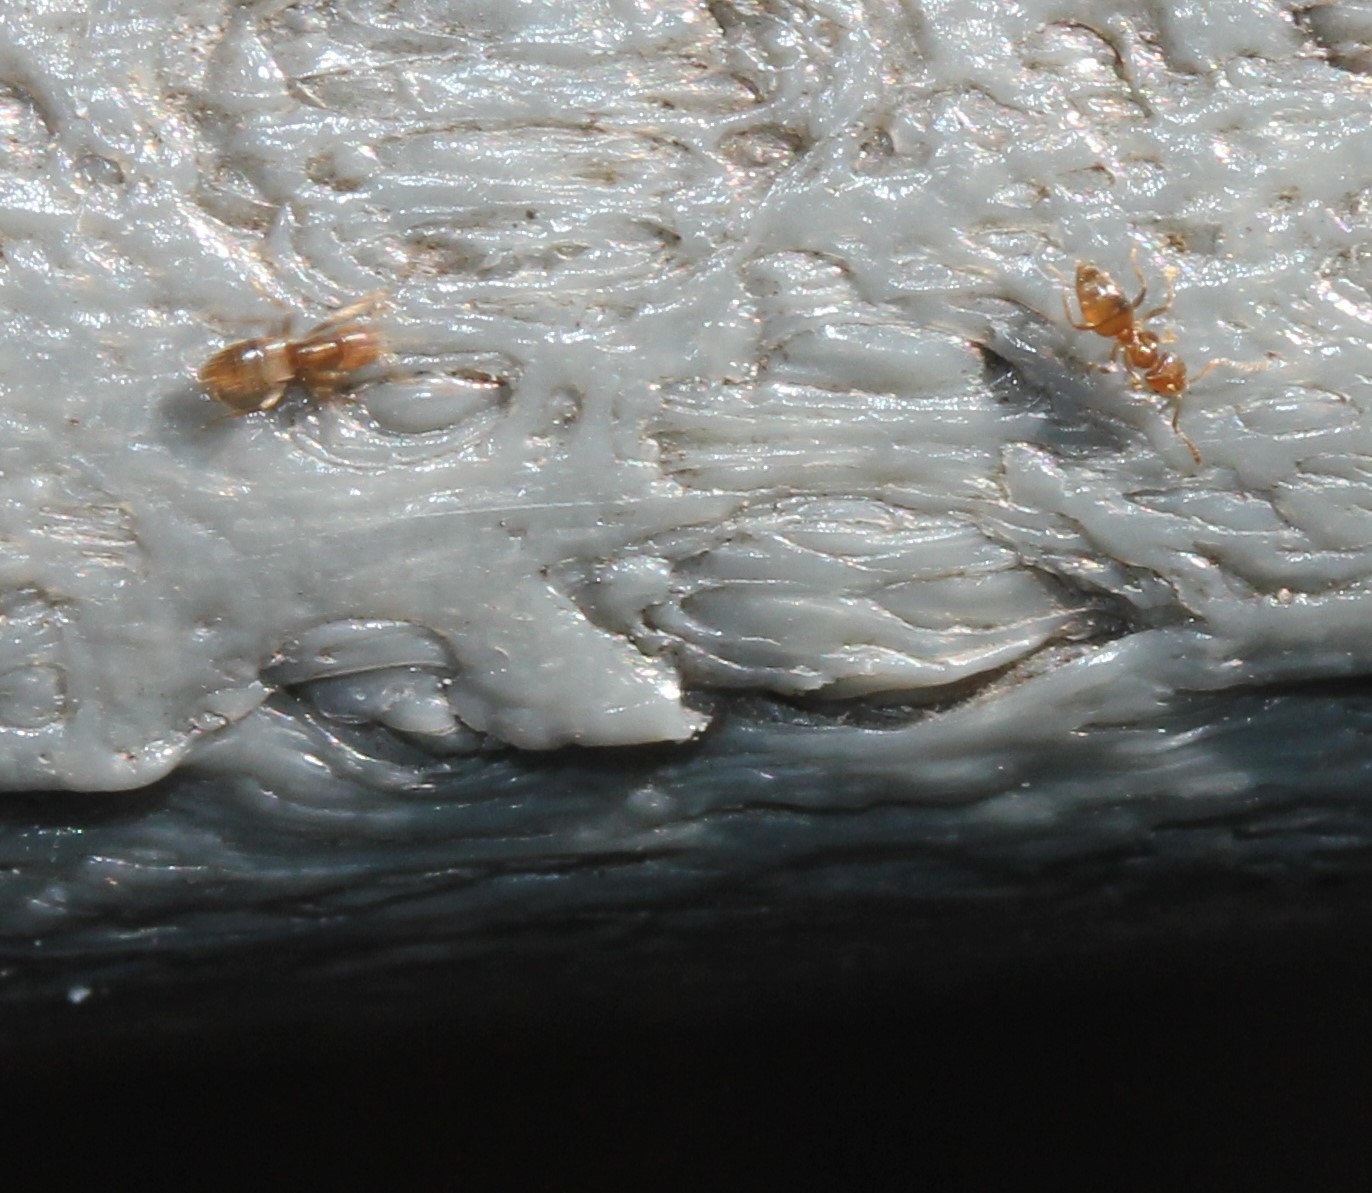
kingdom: Animalia
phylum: Arthropoda
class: Insecta
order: Hymenoptera
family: Formicidae
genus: Brachymyrmex
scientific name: Brachymyrmex obscurior
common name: Obscure rover ant
